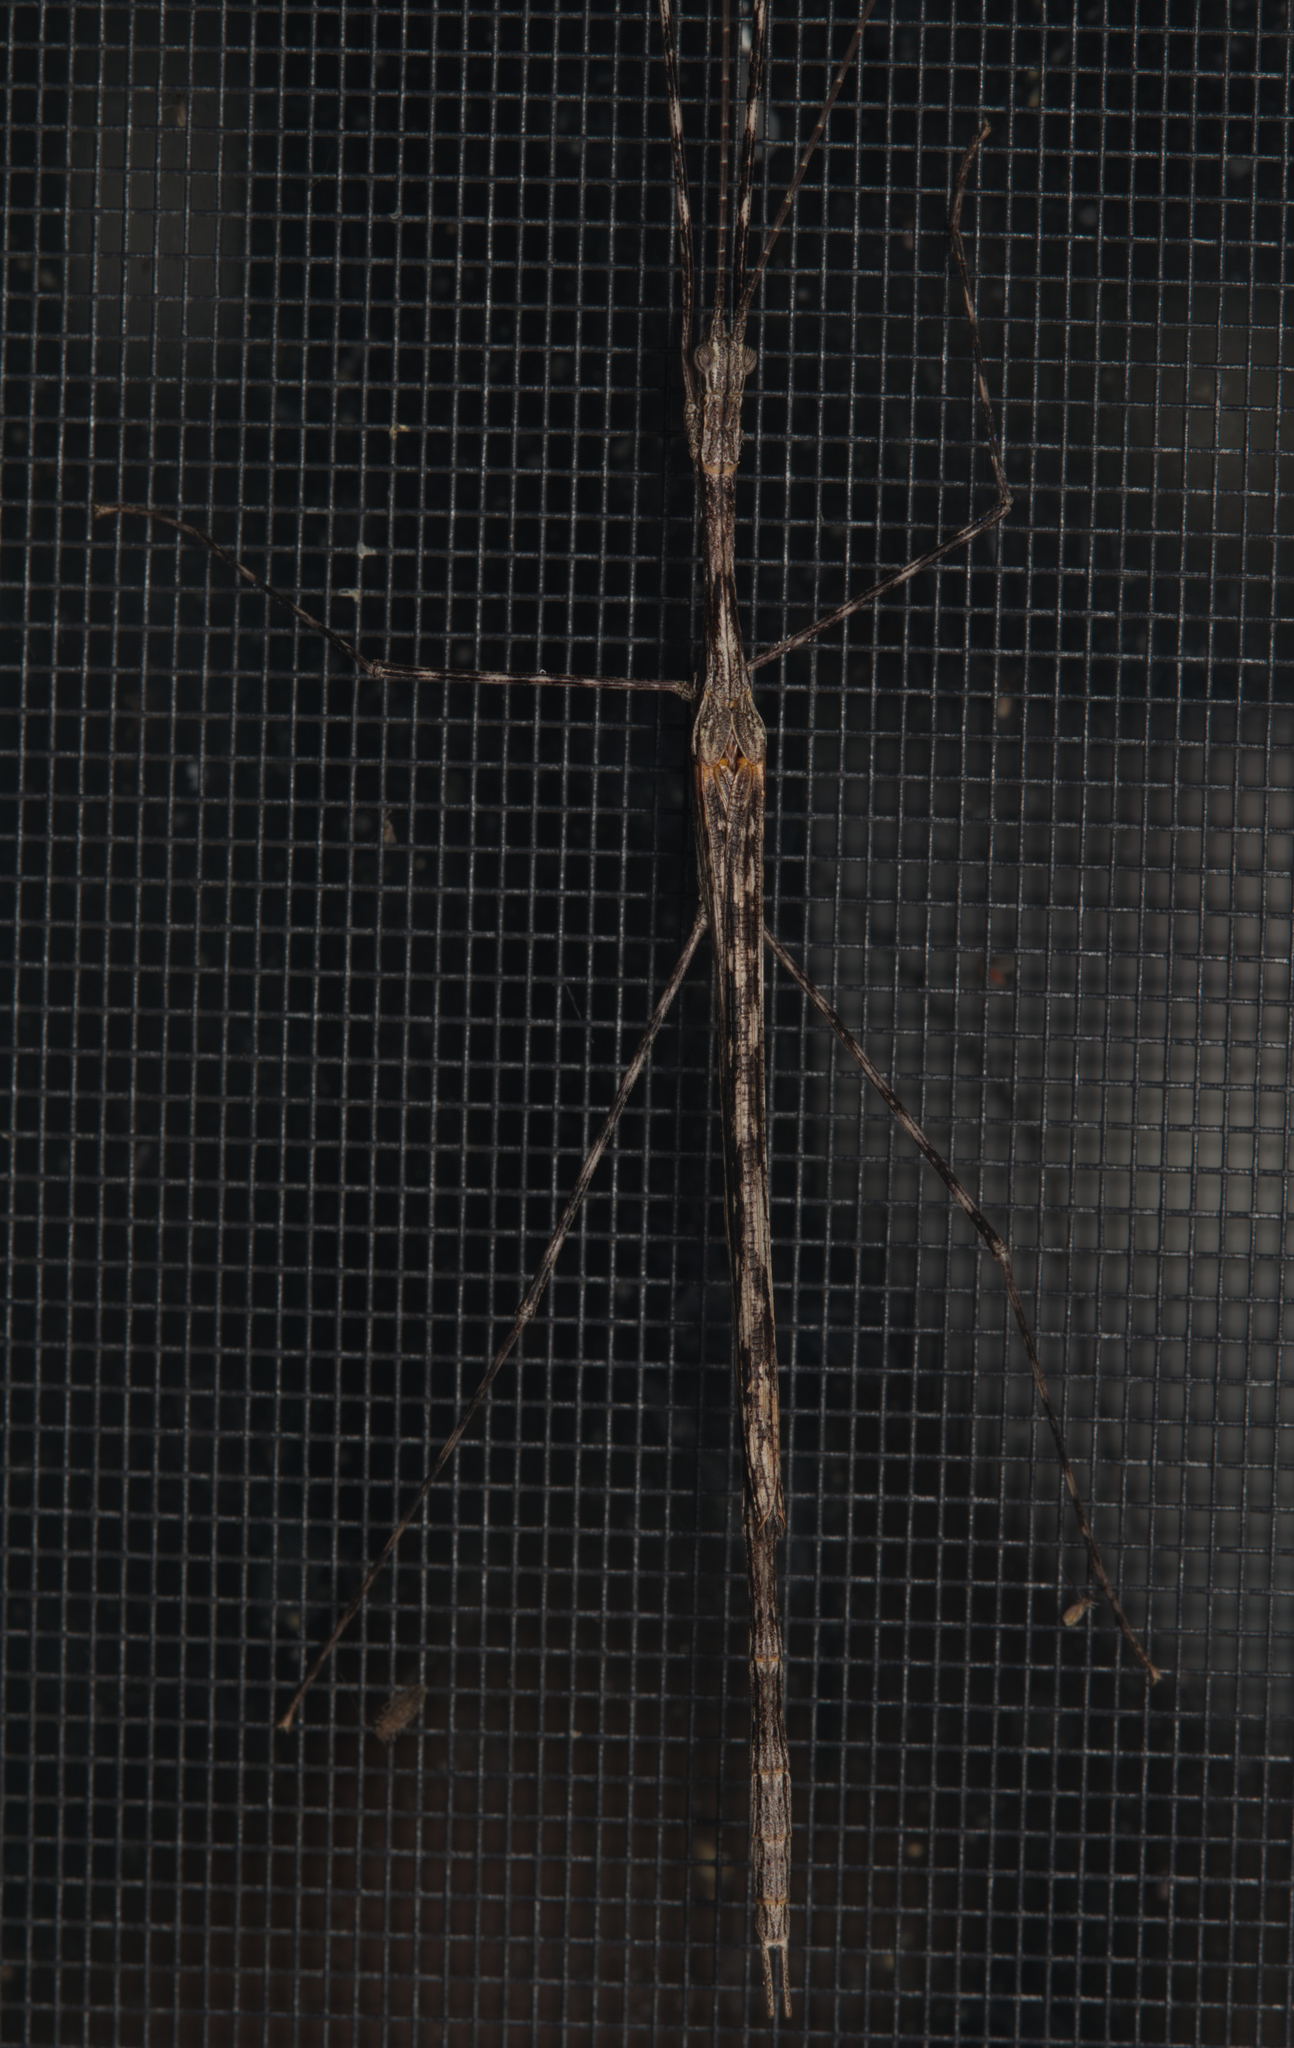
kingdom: Animalia
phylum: Arthropoda
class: Insecta
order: Phasmida
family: Lonchodidae
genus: Mesaner
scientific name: Mesaner sarpedon
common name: Dark-winged stick-insect
